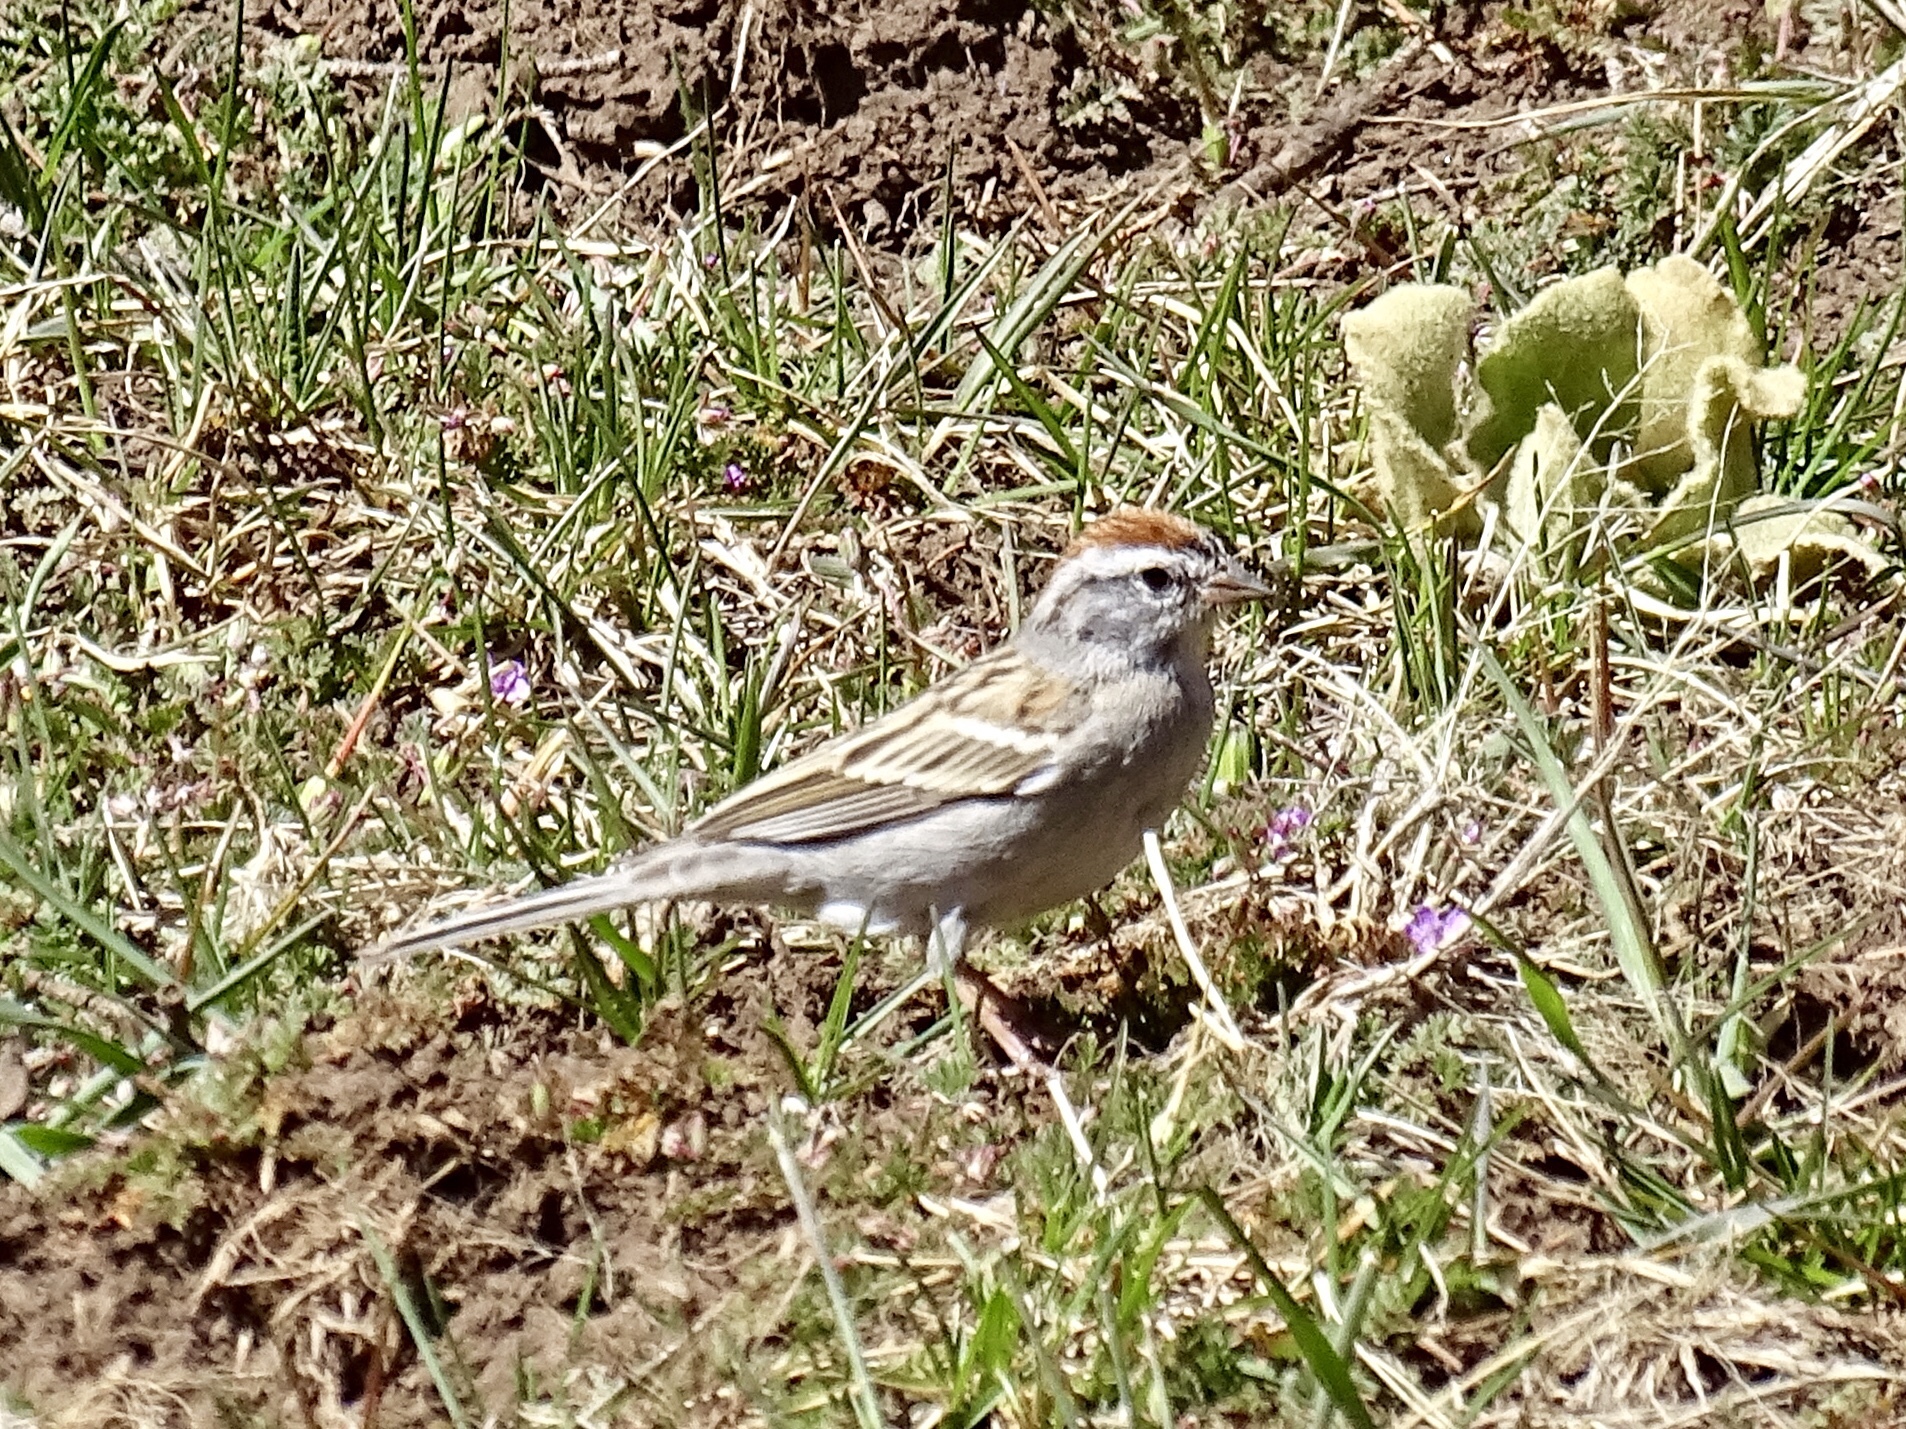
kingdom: Animalia
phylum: Chordata
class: Aves
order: Passeriformes
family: Passerellidae
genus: Spizella
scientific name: Spizella passerina
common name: Chipping sparrow
